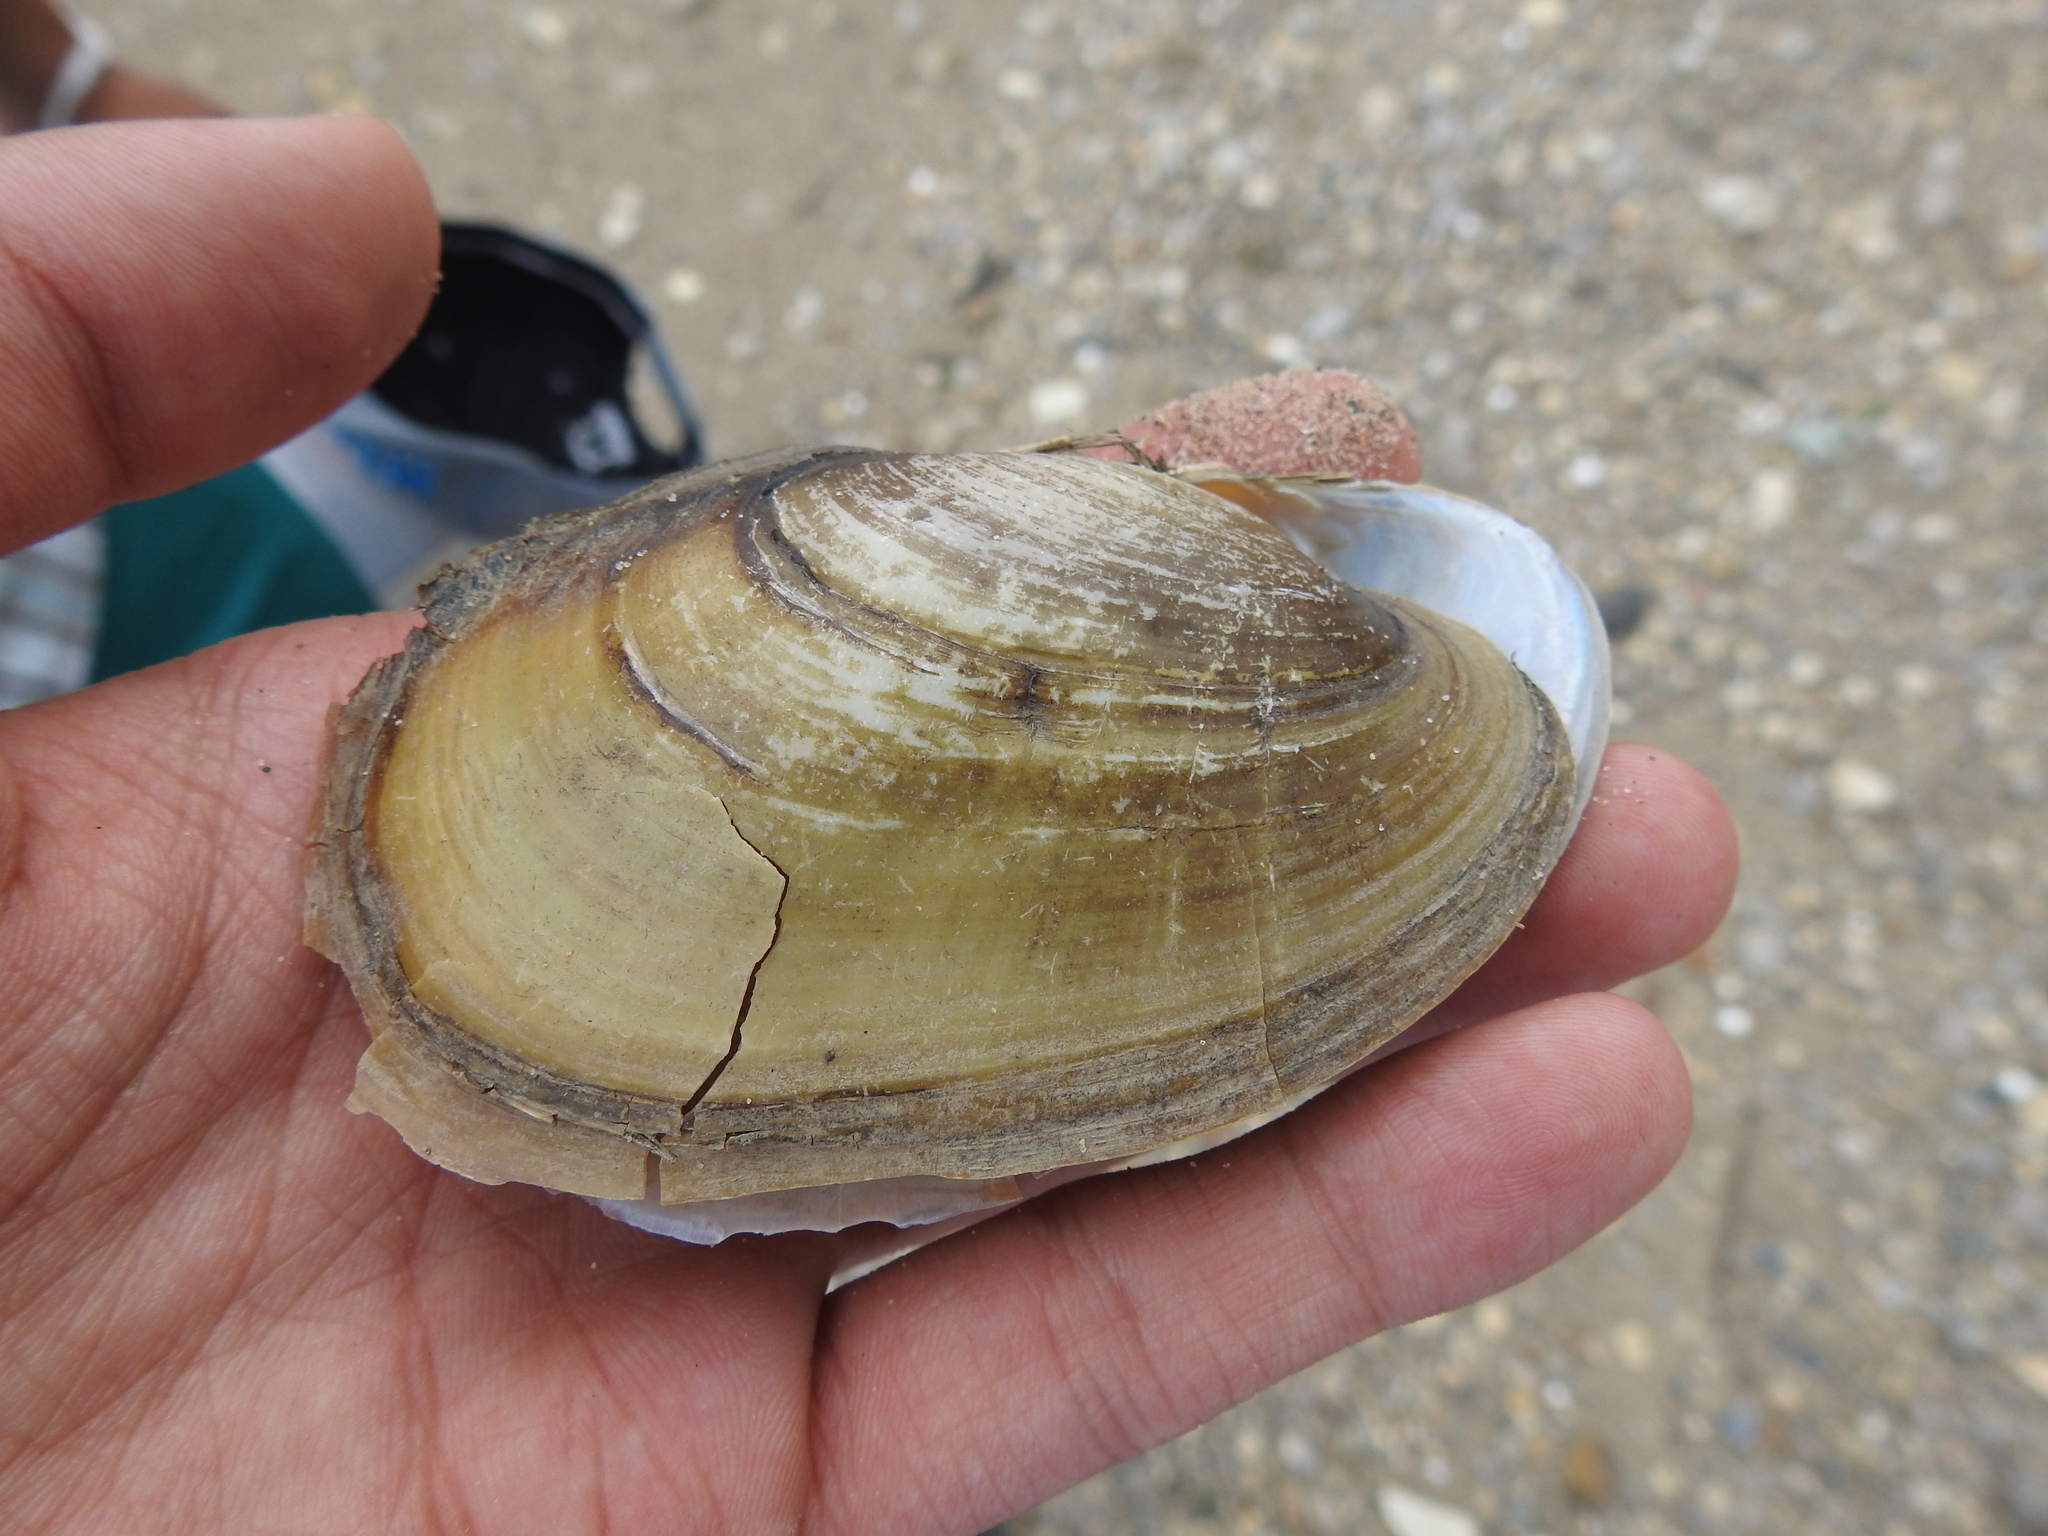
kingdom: Animalia
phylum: Mollusca
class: Bivalvia
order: Unionida
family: Unionidae
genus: Potamilus
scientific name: Potamilus fragilis
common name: Fragile papershell
